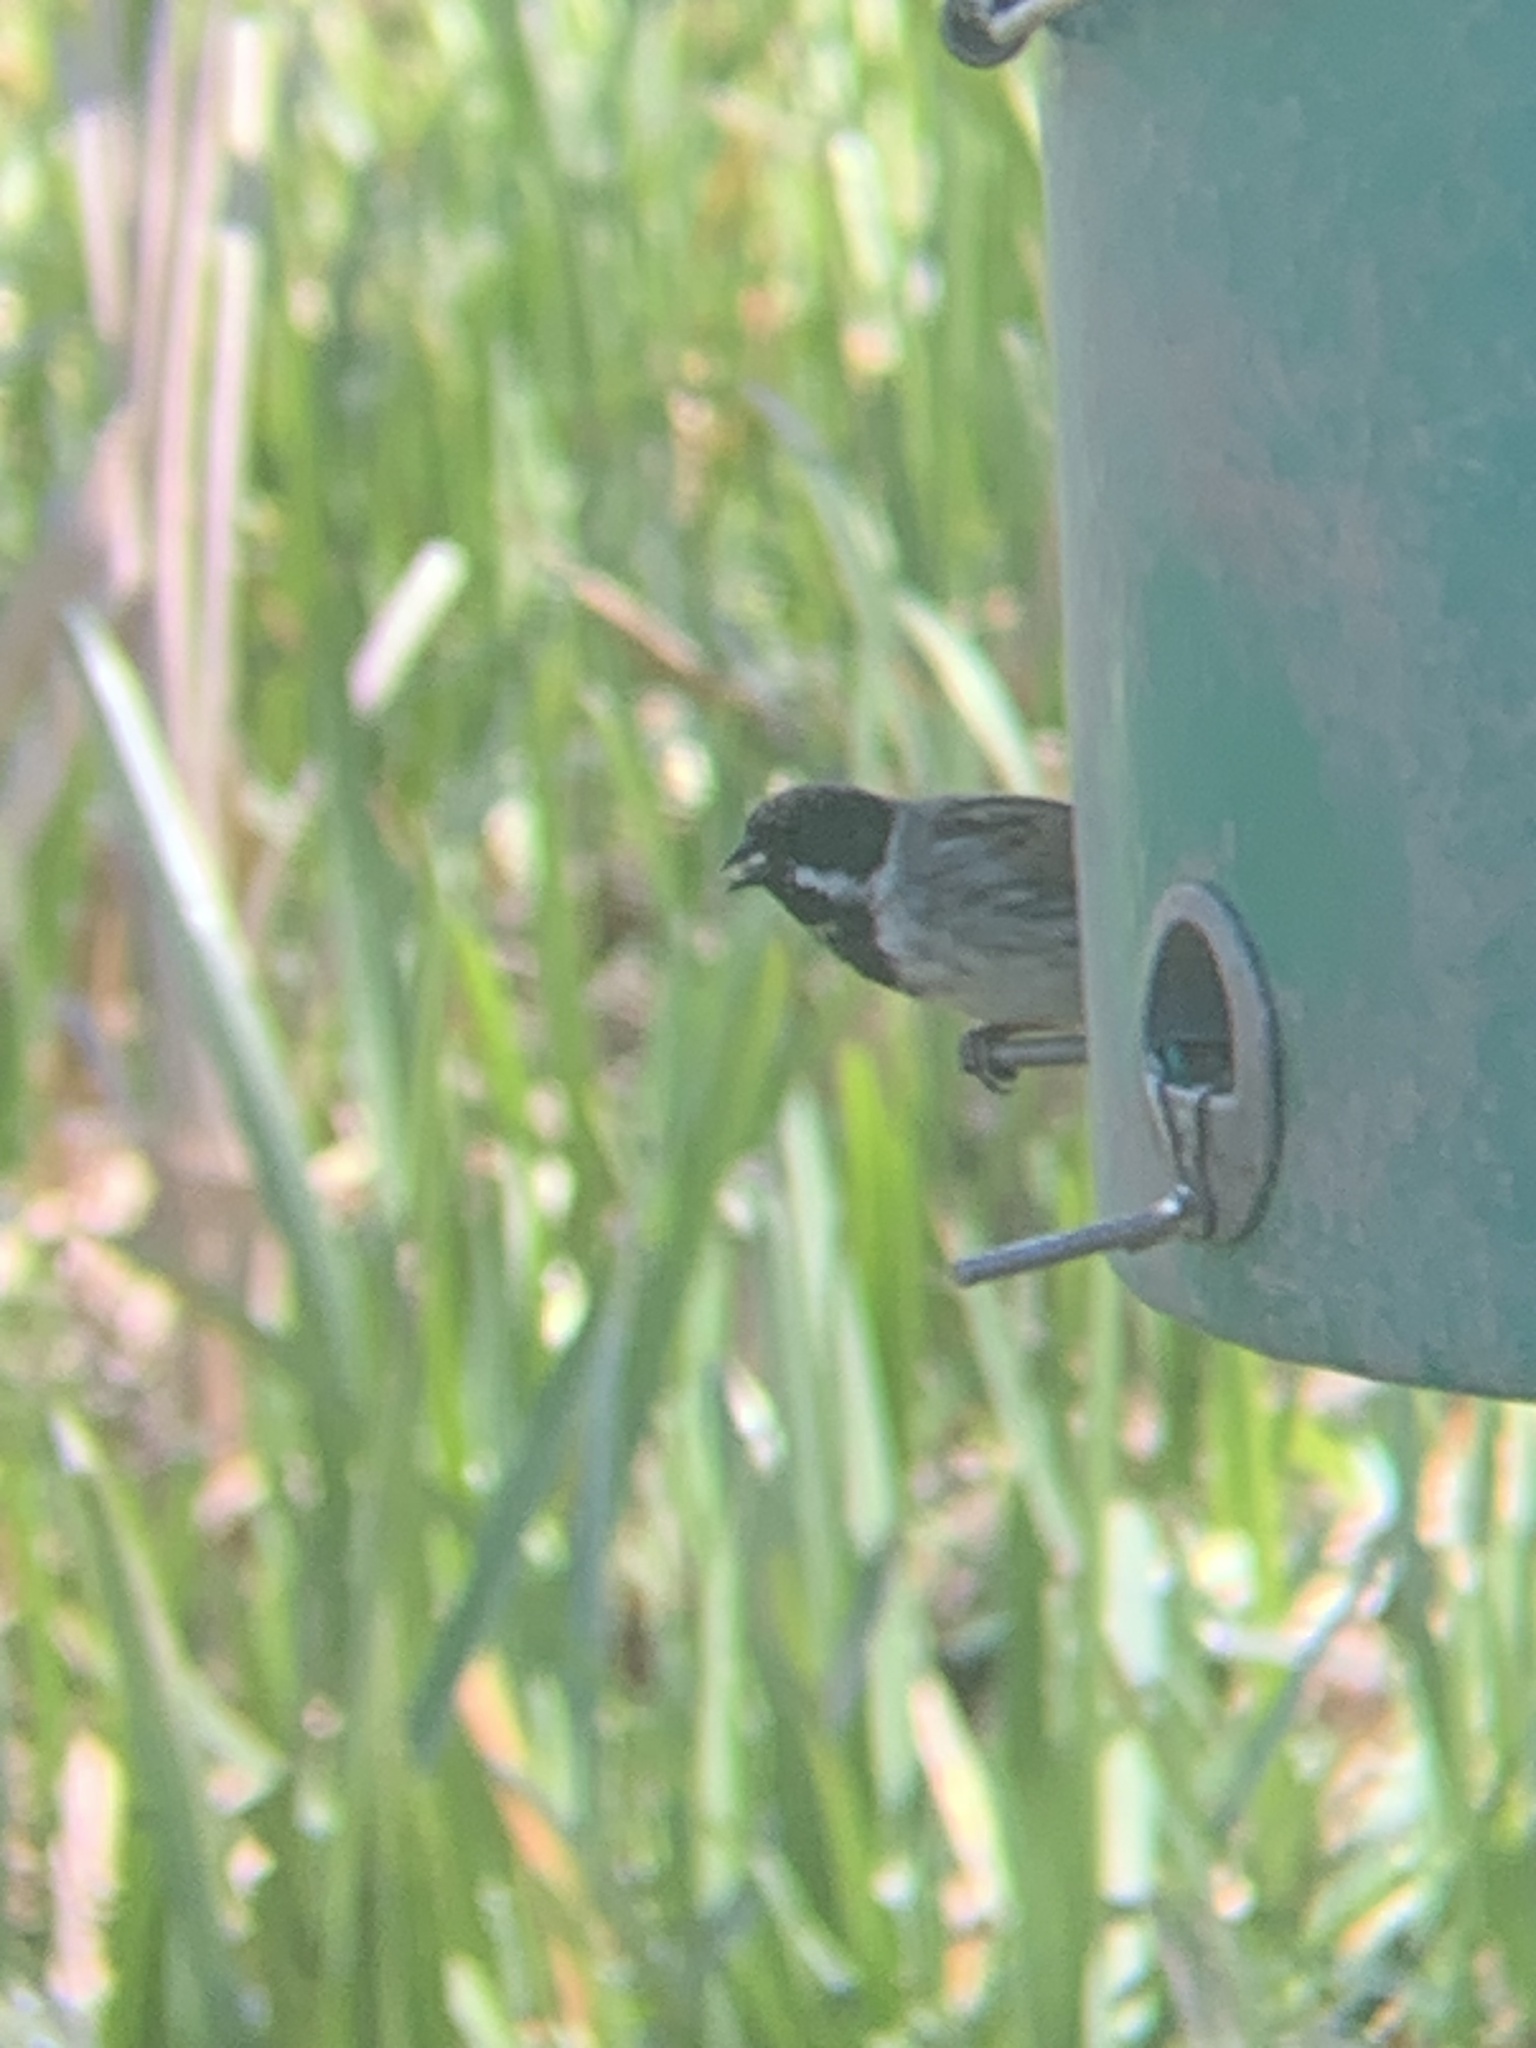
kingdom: Animalia
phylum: Chordata
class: Aves
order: Passeriformes
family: Emberizidae
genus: Emberiza
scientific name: Emberiza schoeniclus
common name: Reed bunting
